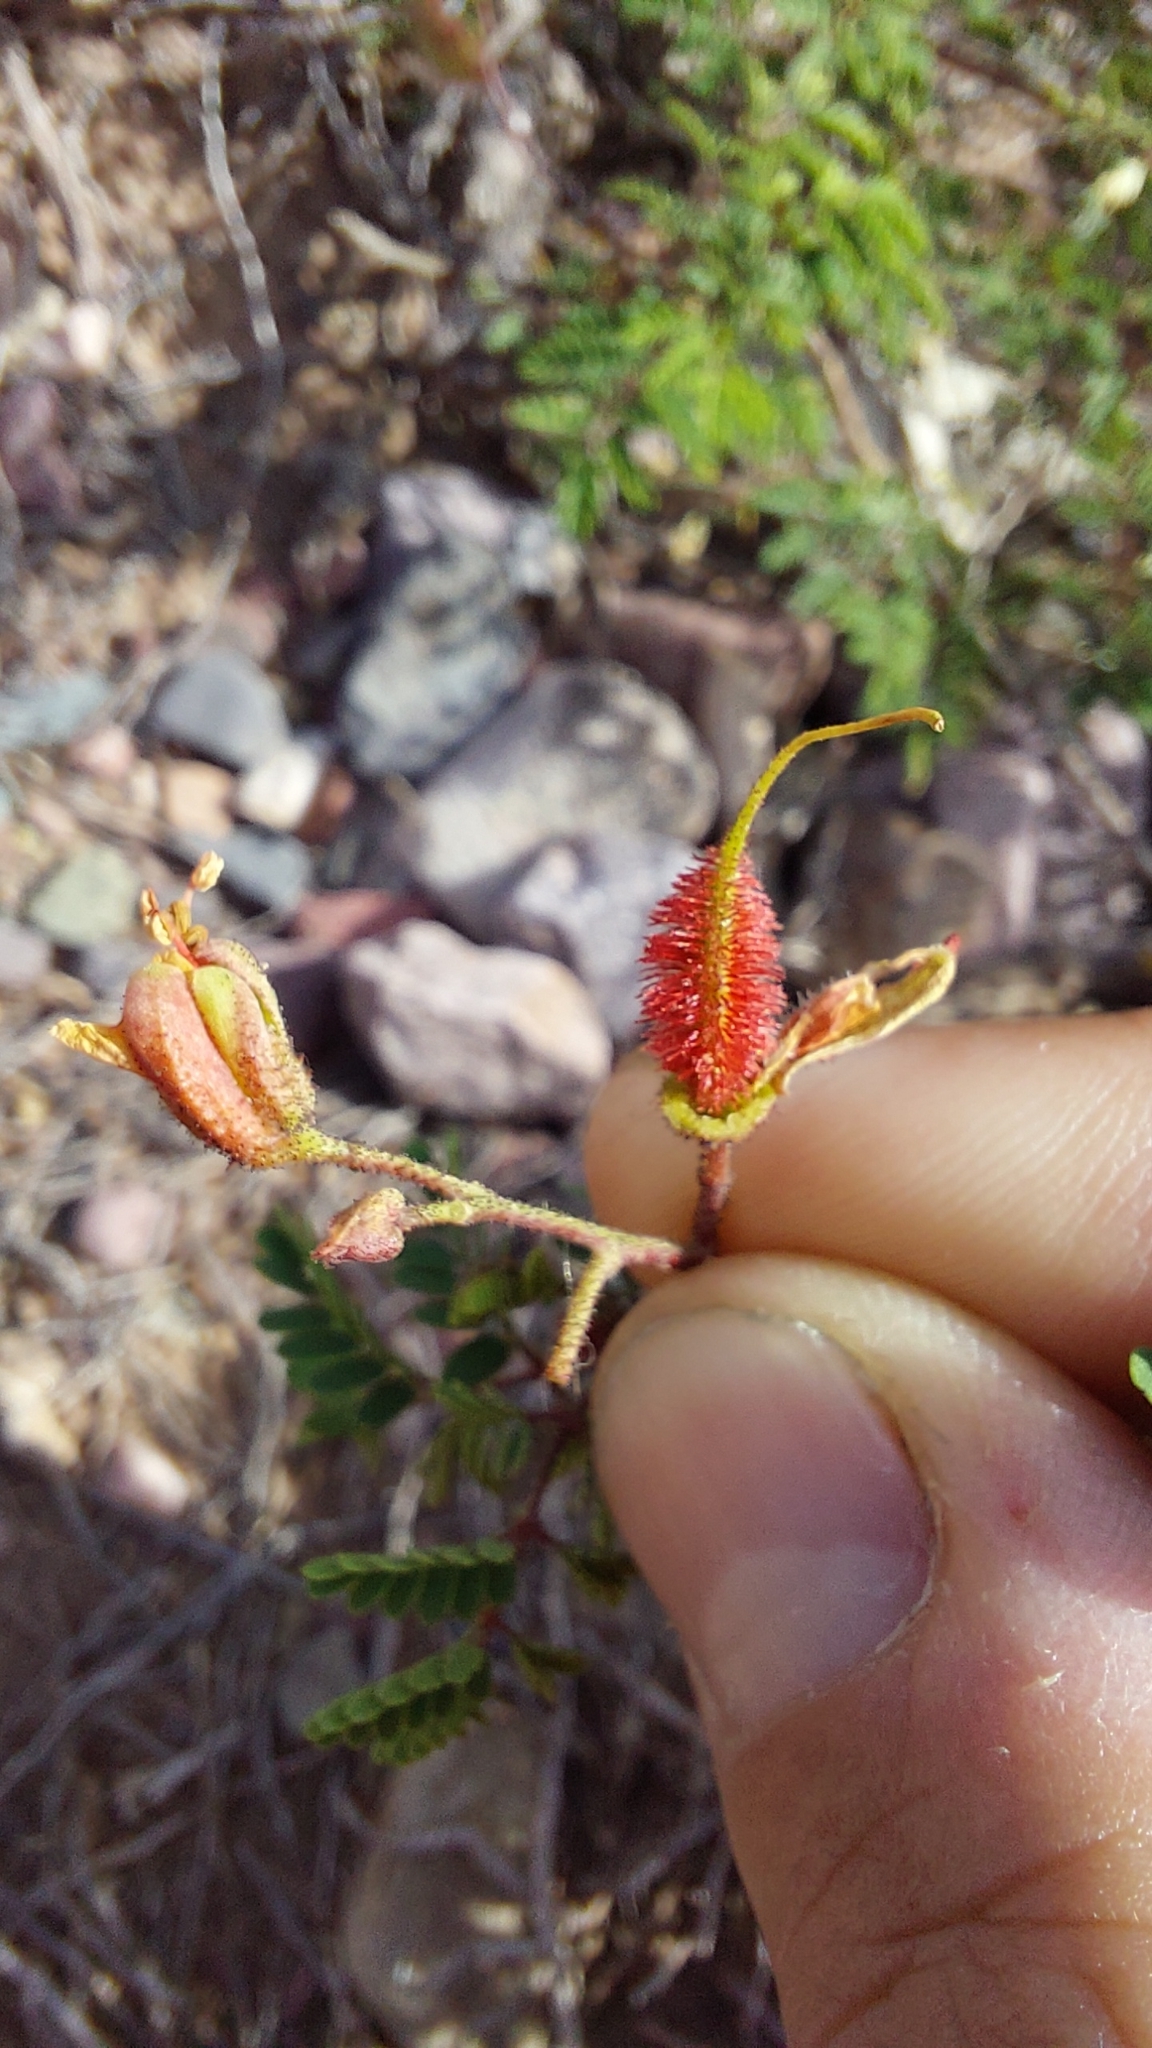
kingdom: Plantae
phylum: Tracheophyta
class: Magnoliopsida
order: Fabales
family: Fabaceae
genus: Arquita
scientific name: Arquita trichocarpa
